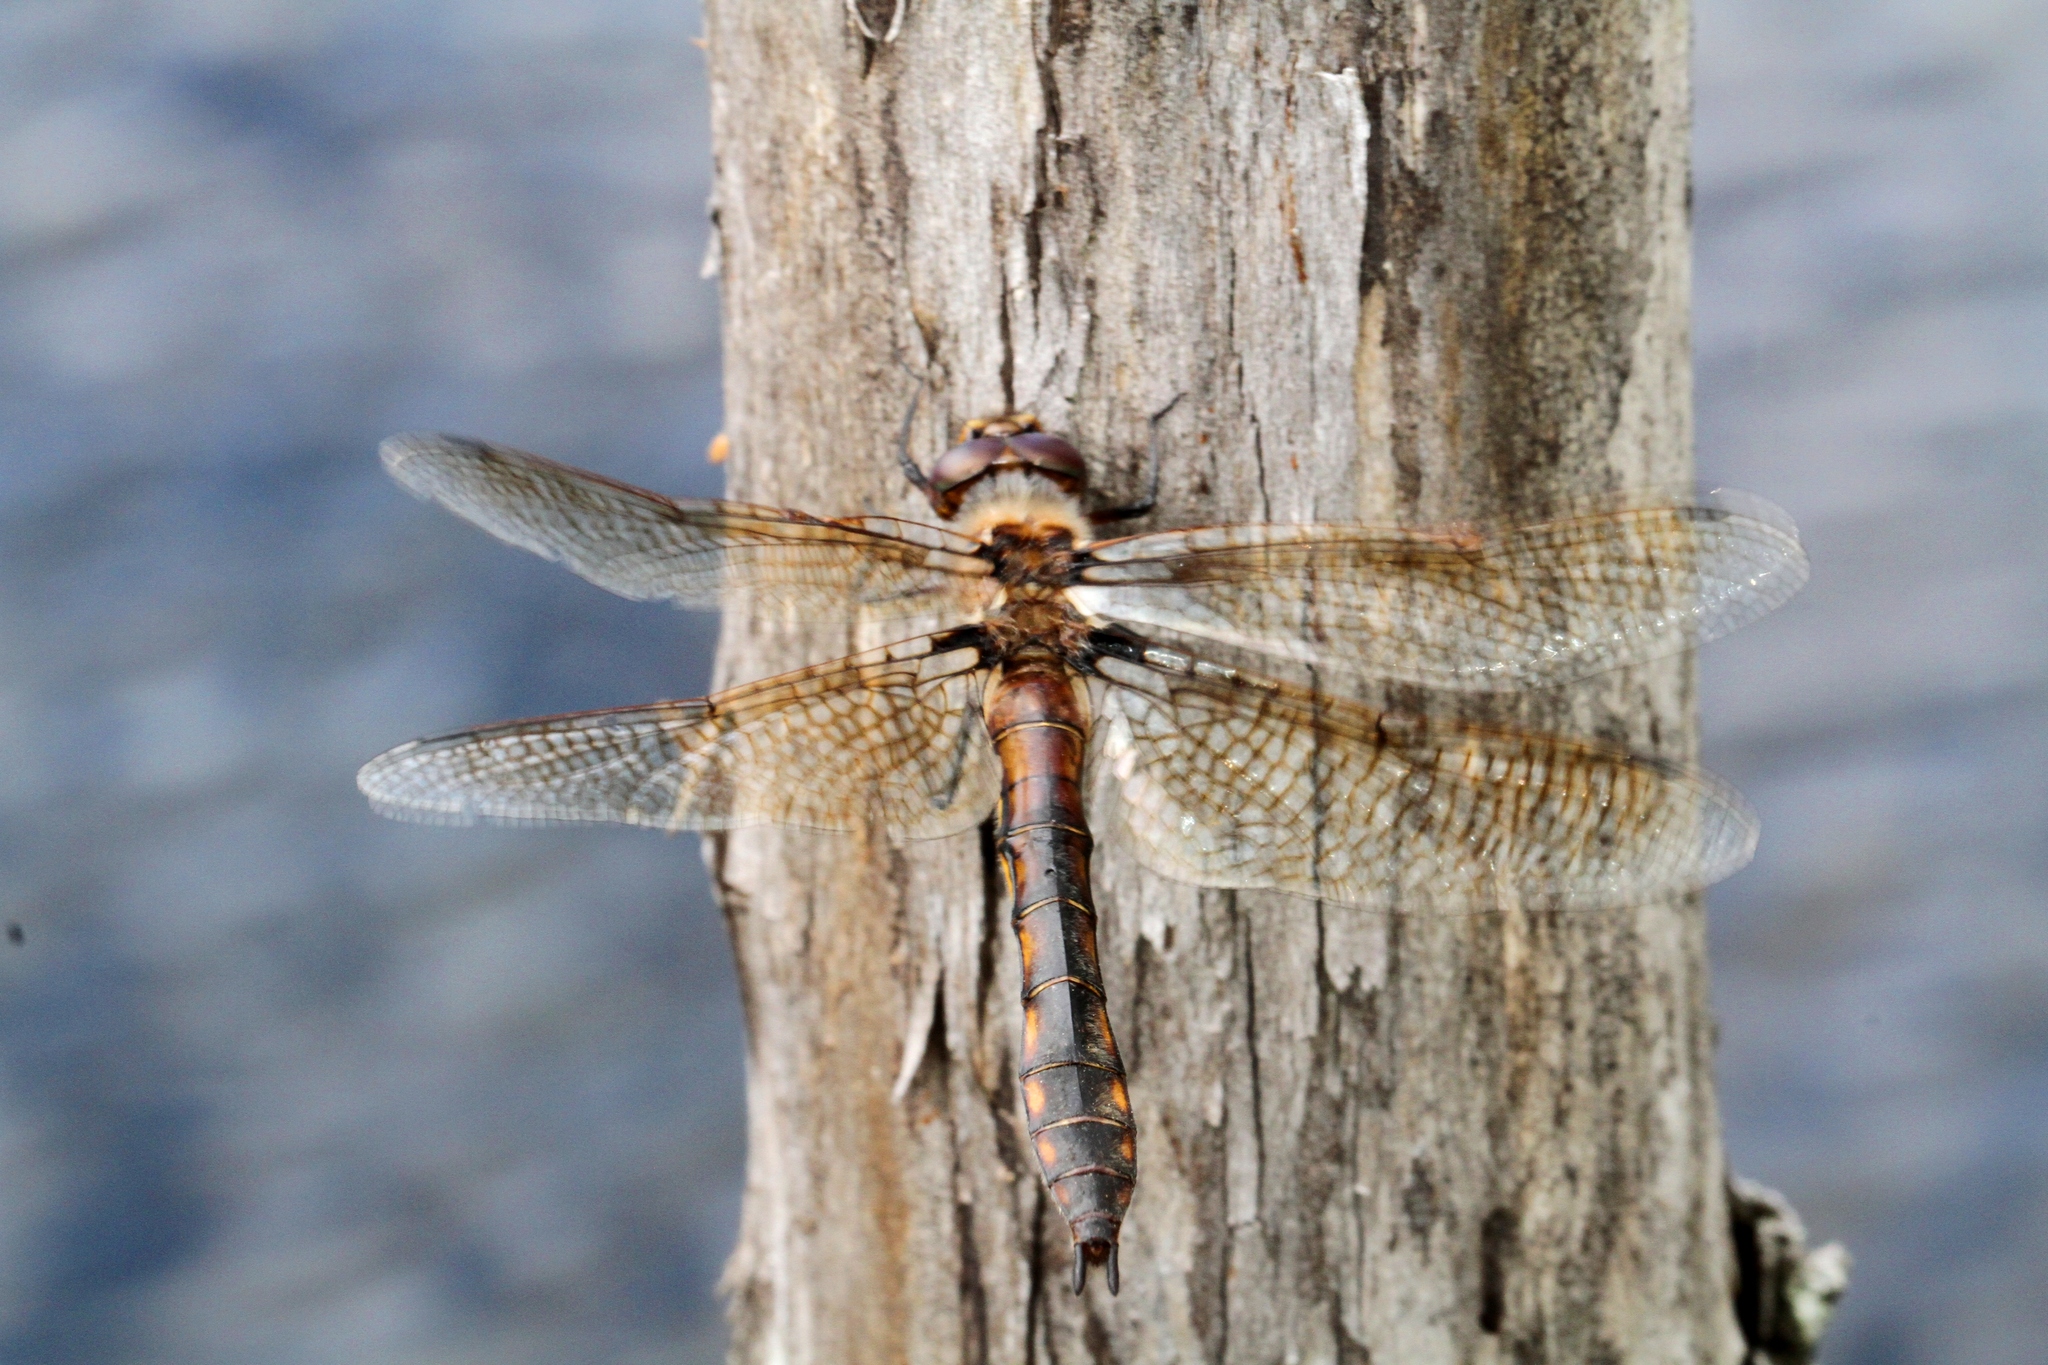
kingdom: Animalia
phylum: Arthropoda
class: Insecta
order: Odonata
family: Corduliidae
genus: Epitheca
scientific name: Epitheca canis
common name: Beaverpond baskettail
